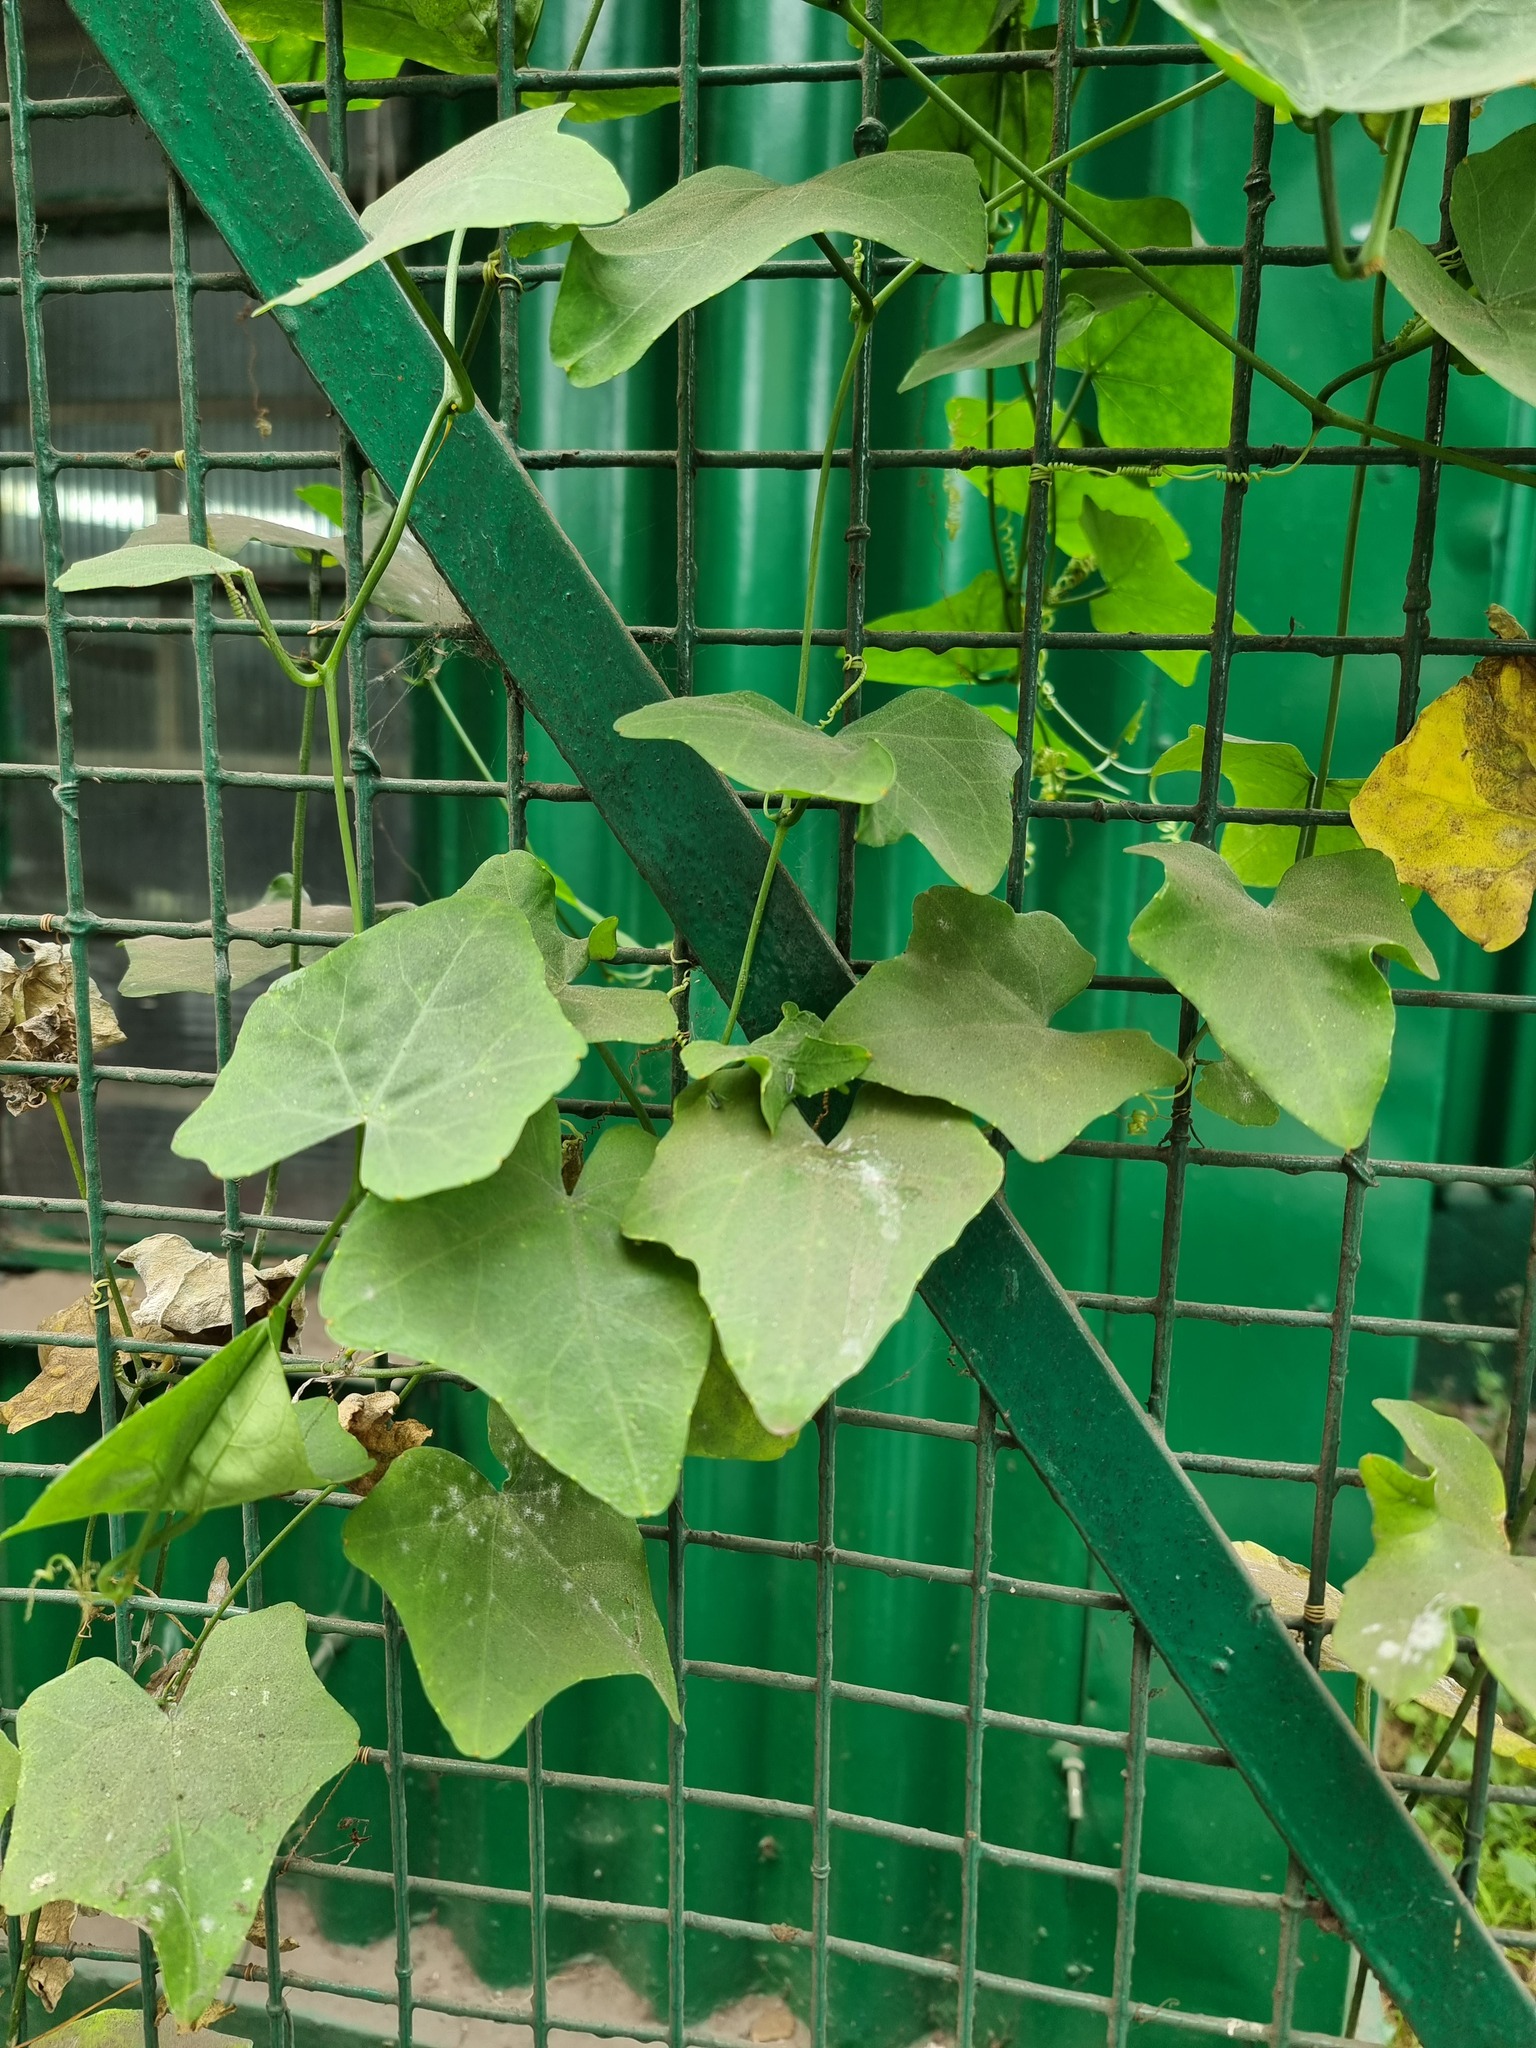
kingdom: Plantae
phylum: Tracheophyta
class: Magnoliopsida
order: Cucurbitales
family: Cucurbitaceae
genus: Coccinia
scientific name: Coccinia grandis
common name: Ivy gourd
